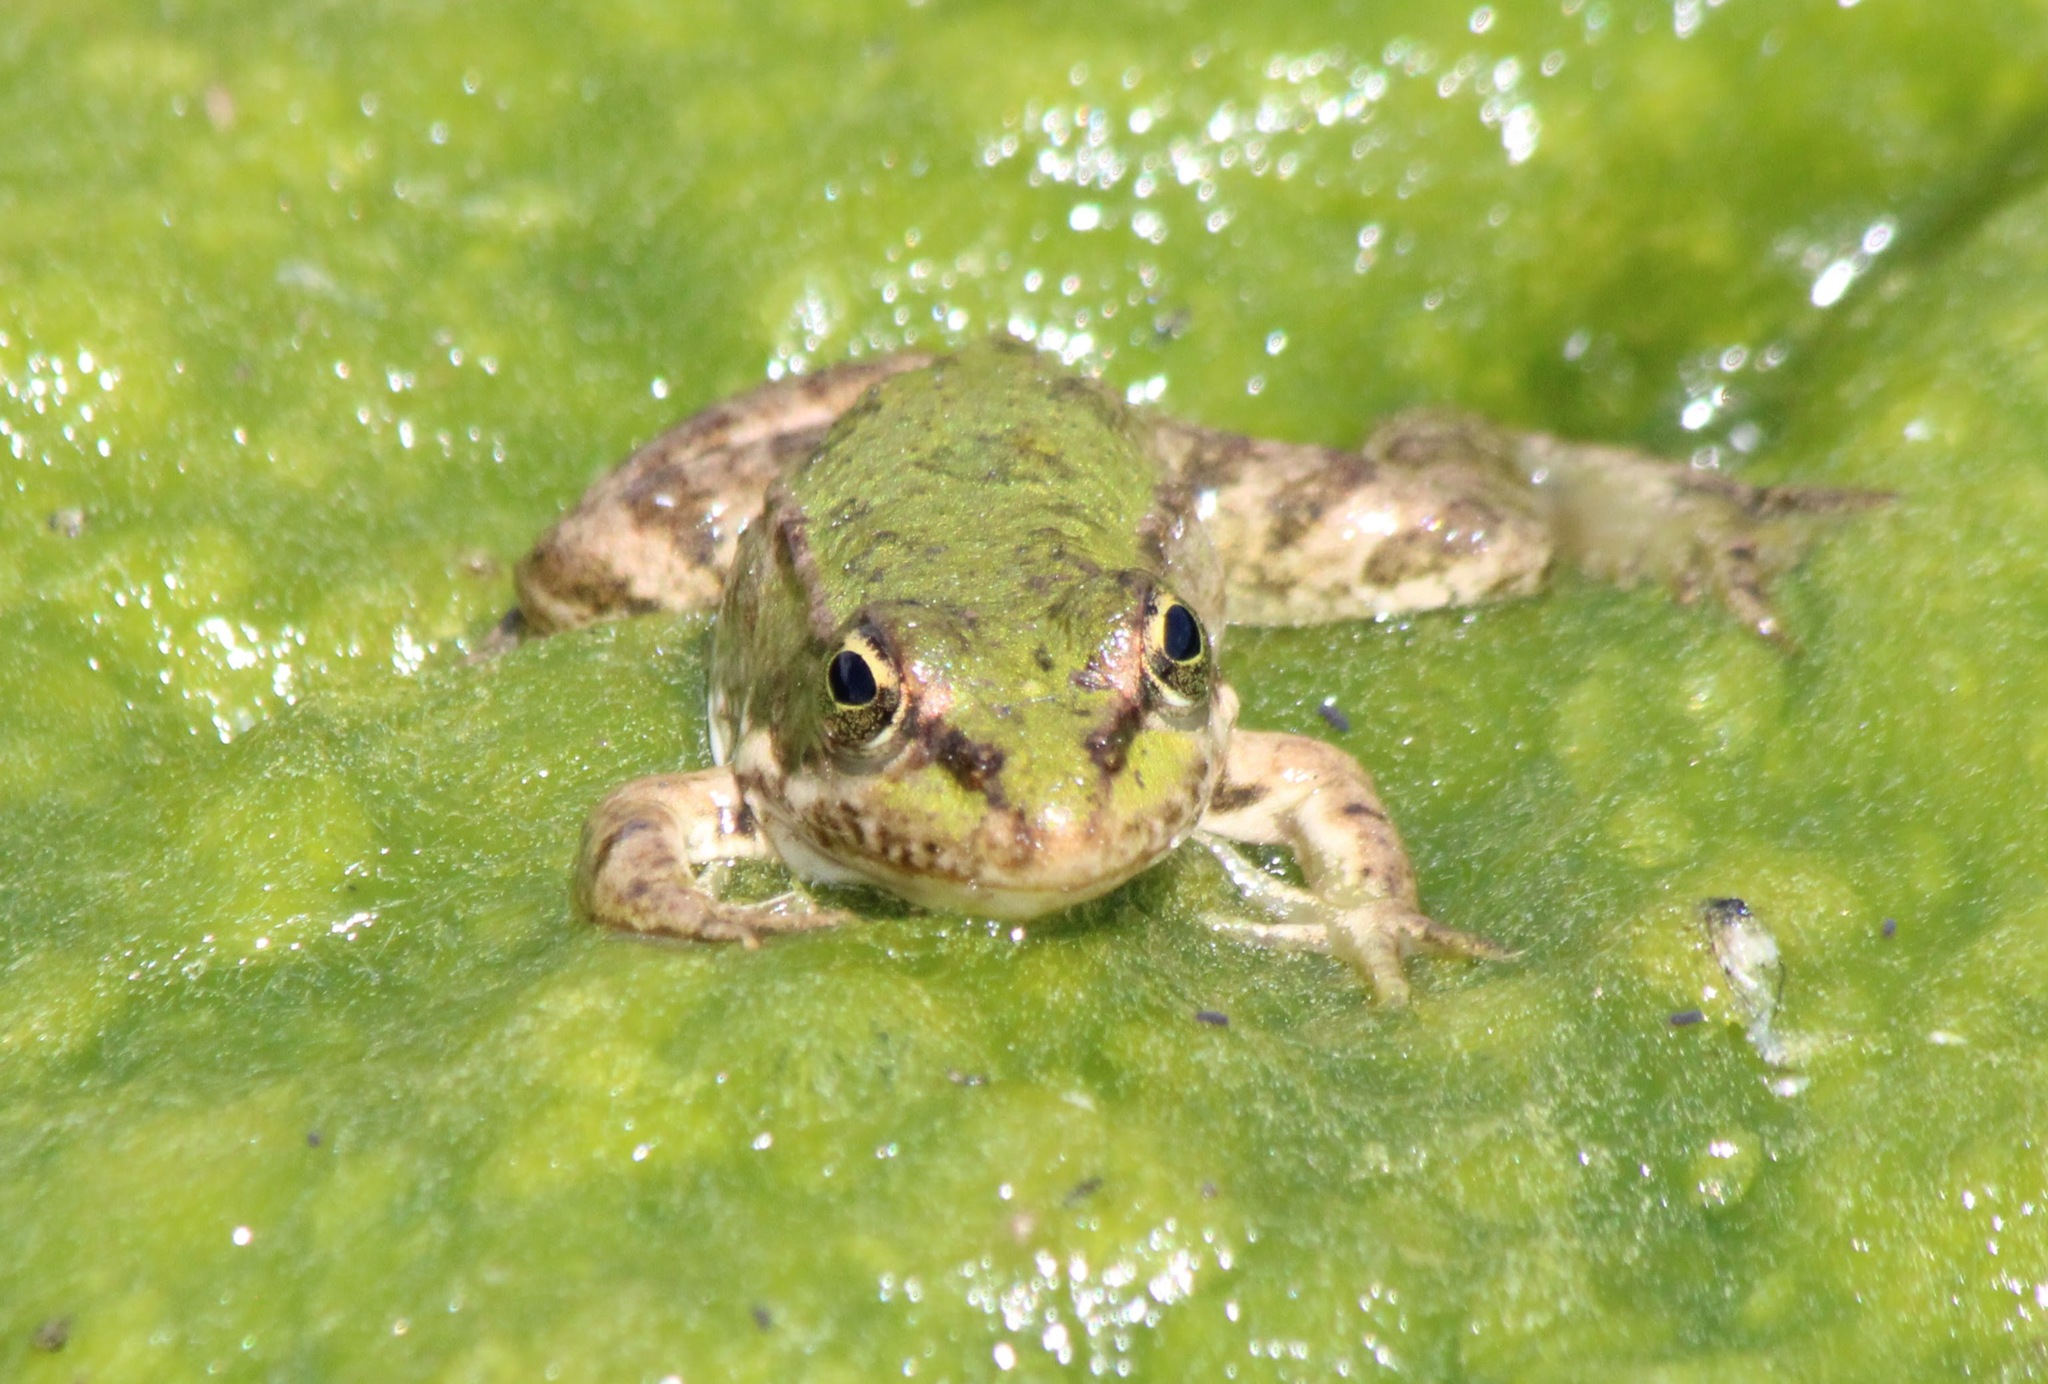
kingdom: Animalia
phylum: Chordata
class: Amphibia
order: Anura
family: Ranidae
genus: Pelophylax
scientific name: Pelophylax ridibundus
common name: Marsh frog
